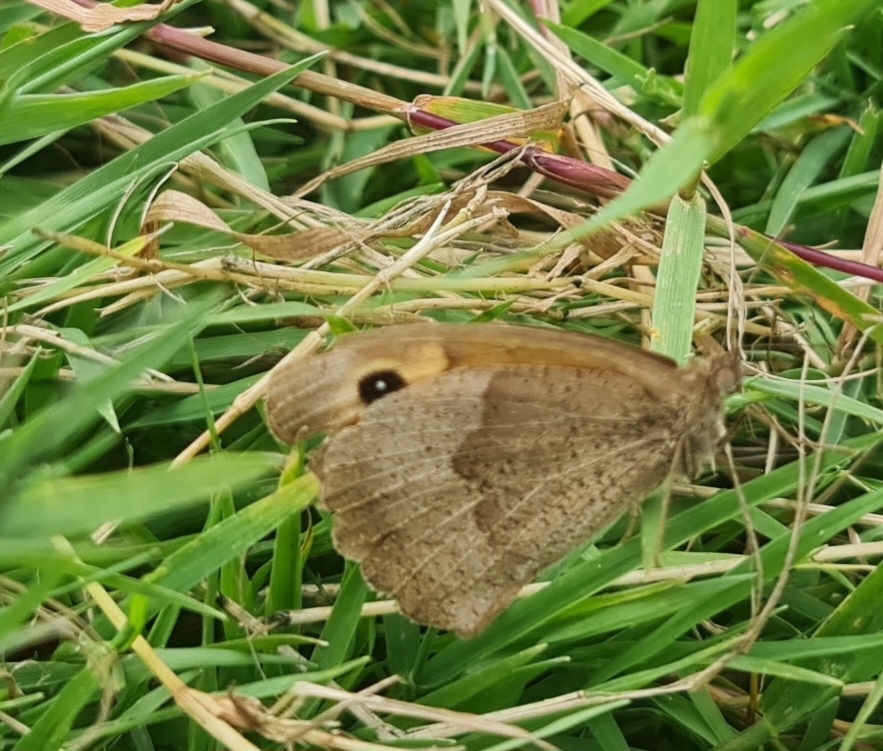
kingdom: Animalia
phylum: Arthropoda
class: Insecta
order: Lepidoptera
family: Nymphalidae
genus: Maniola
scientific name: Maniola jurtina
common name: Meadow brown
